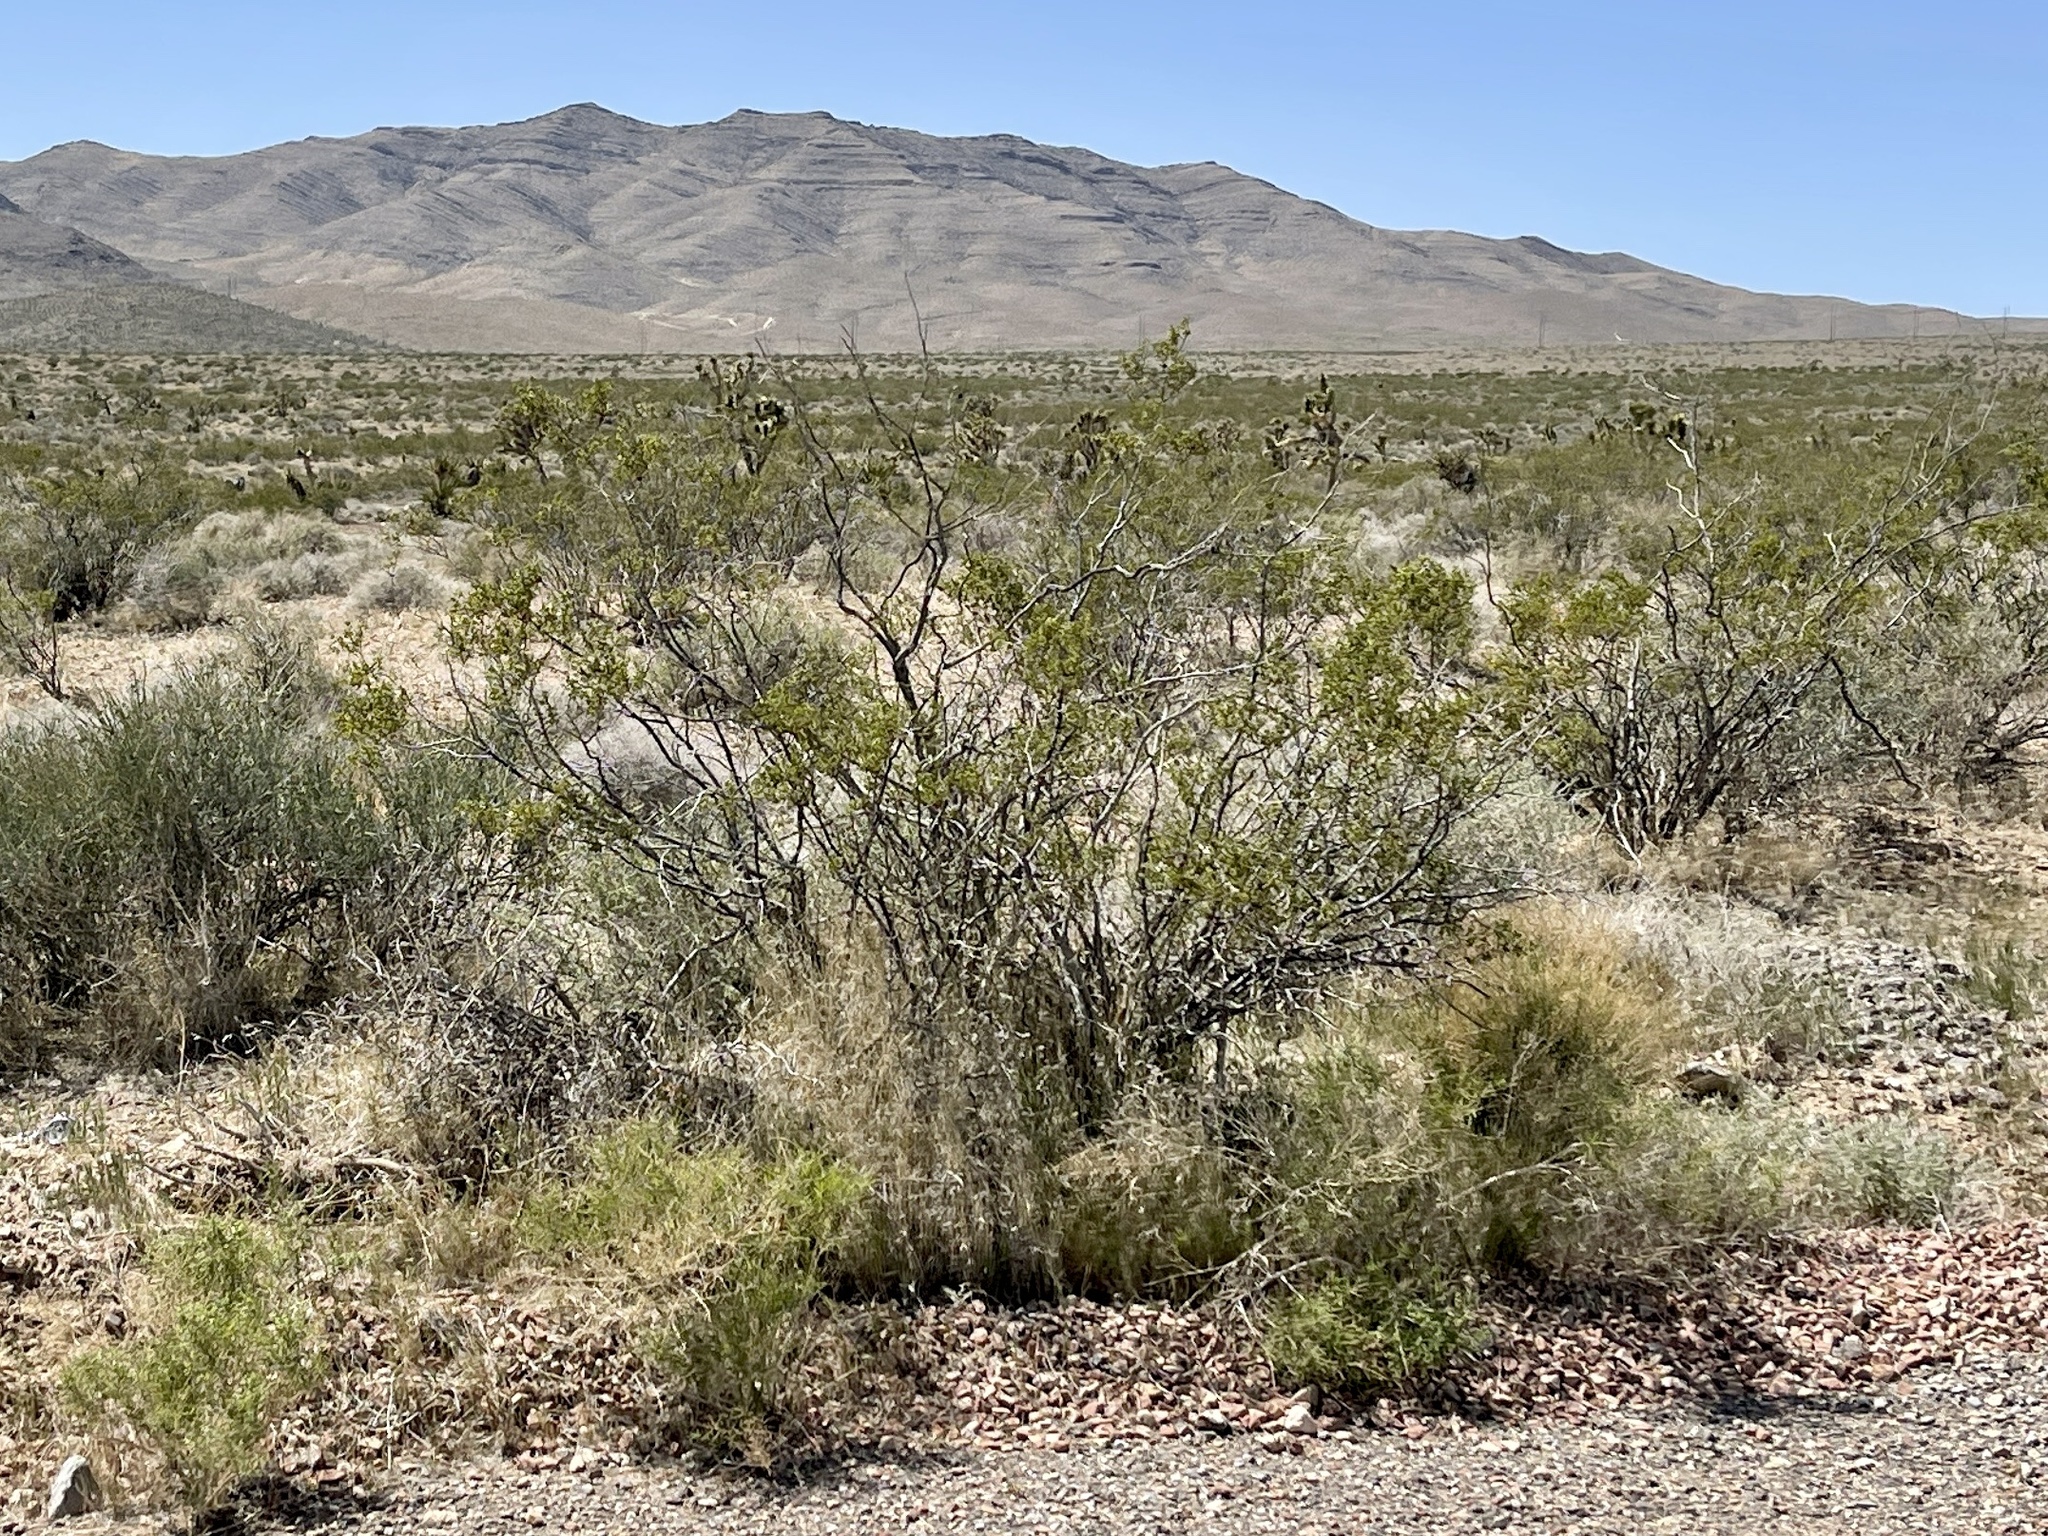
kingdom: Plantae
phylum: Tracheophyta
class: Magnoliopsida
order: Zygophyllales
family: Zygophyllaceae
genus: Larrea
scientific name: Larrea tridentata
